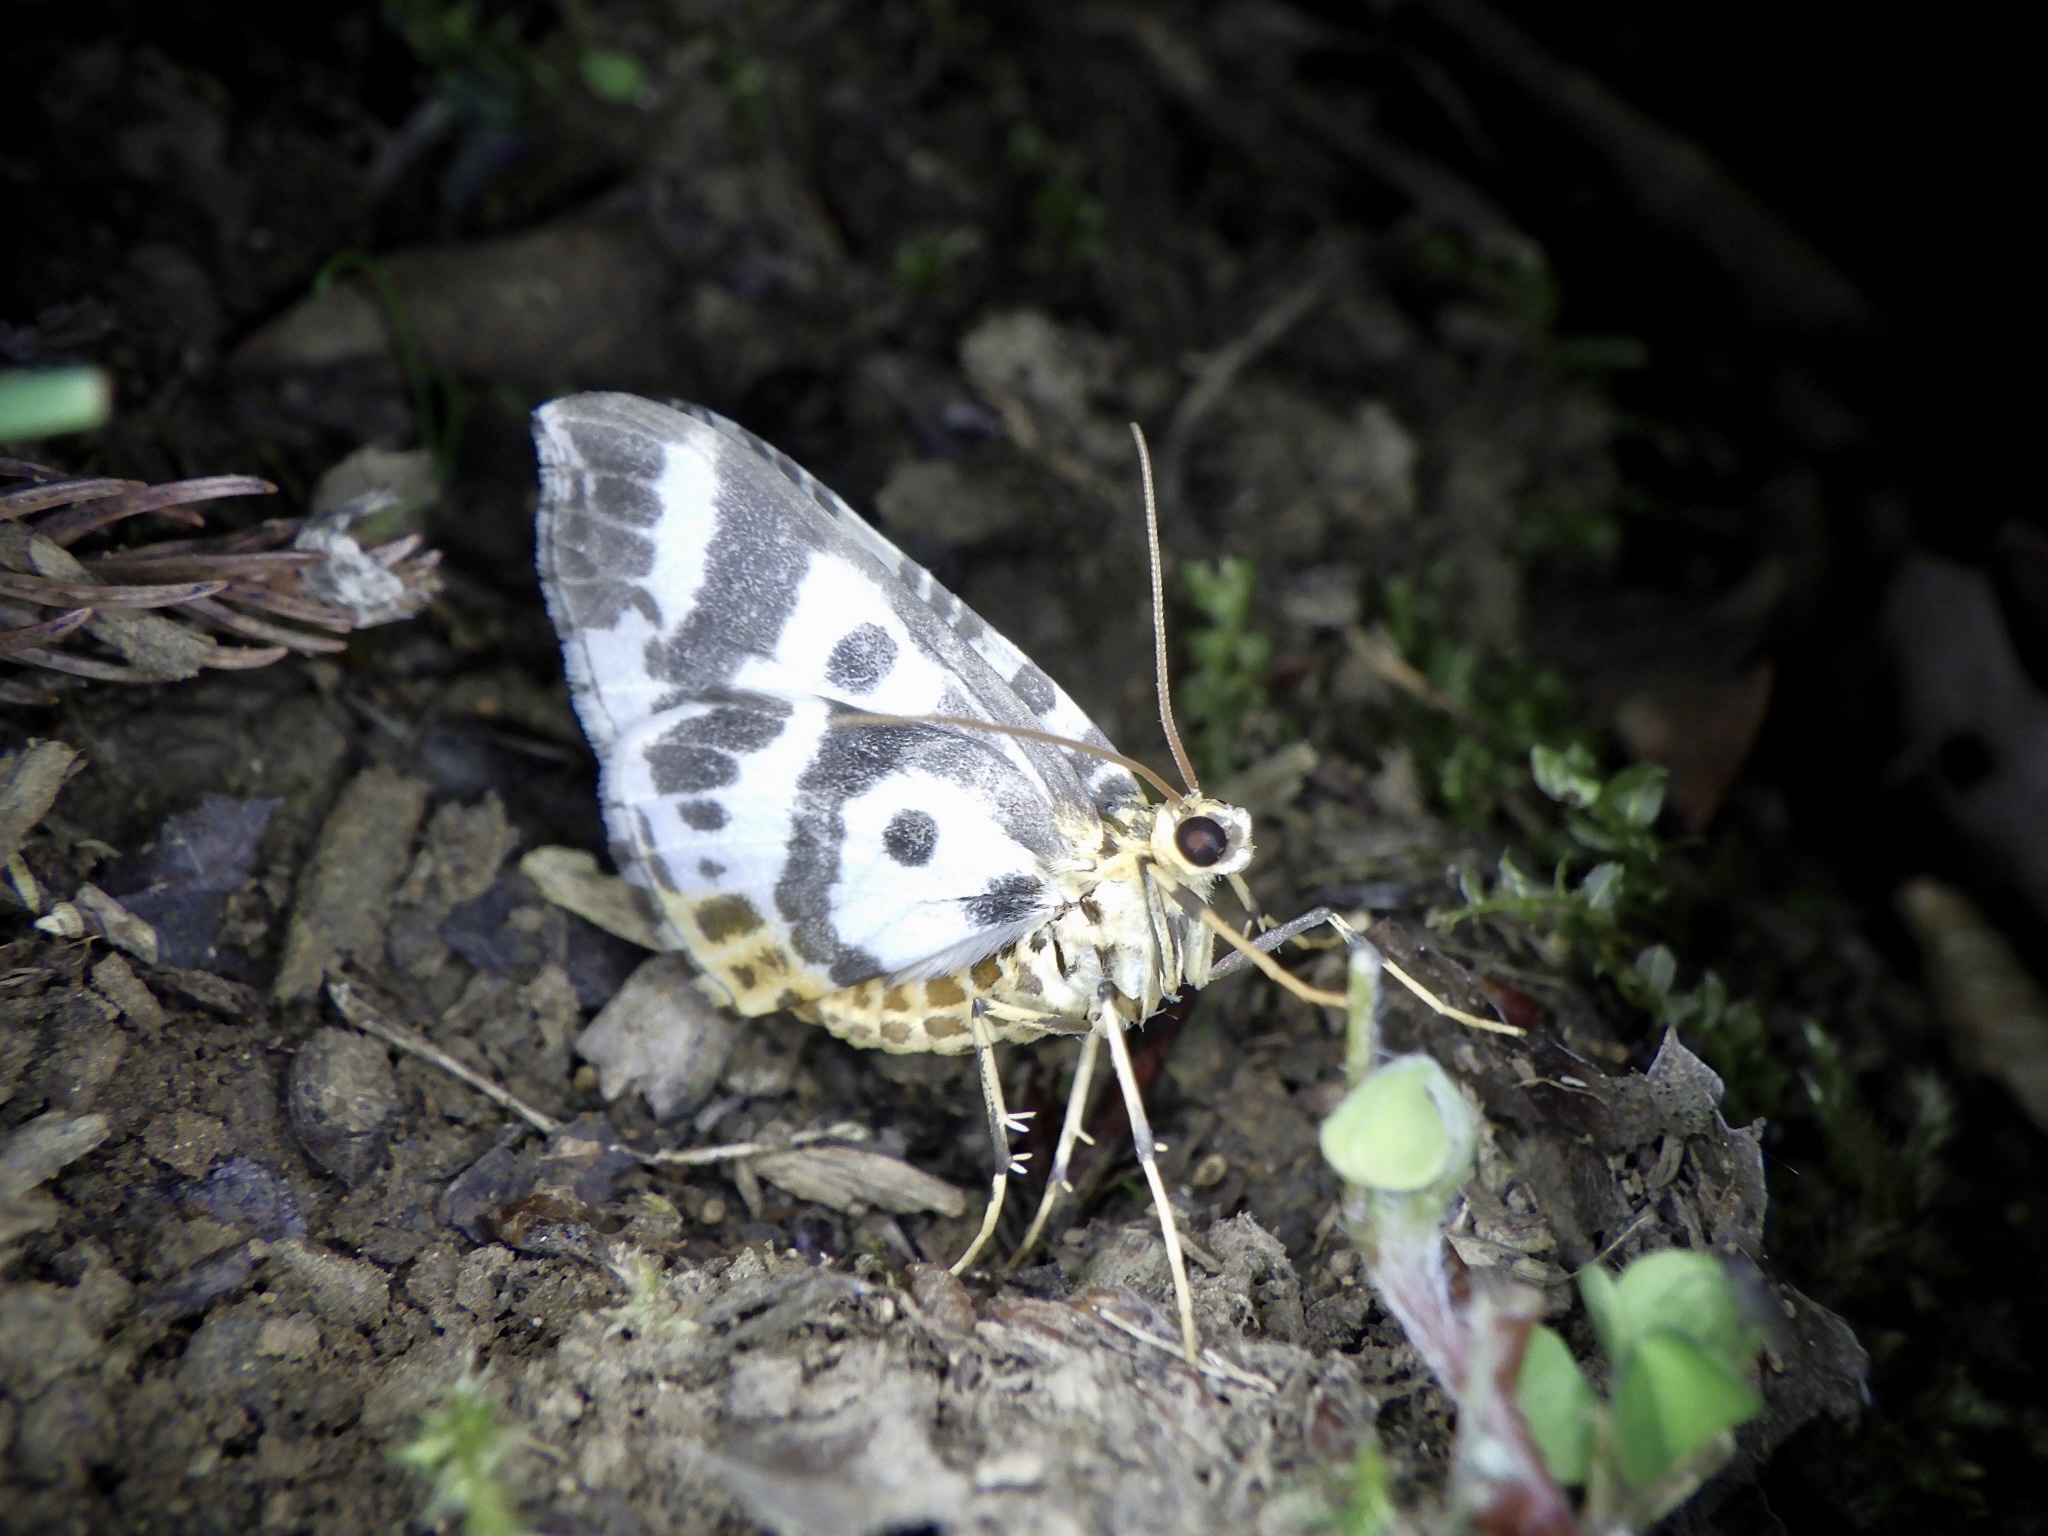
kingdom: Animalia
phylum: Arthropoda
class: Insecta
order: Lepidoptera
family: Geometridae
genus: Callabraxas
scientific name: Callabraxas compositata
